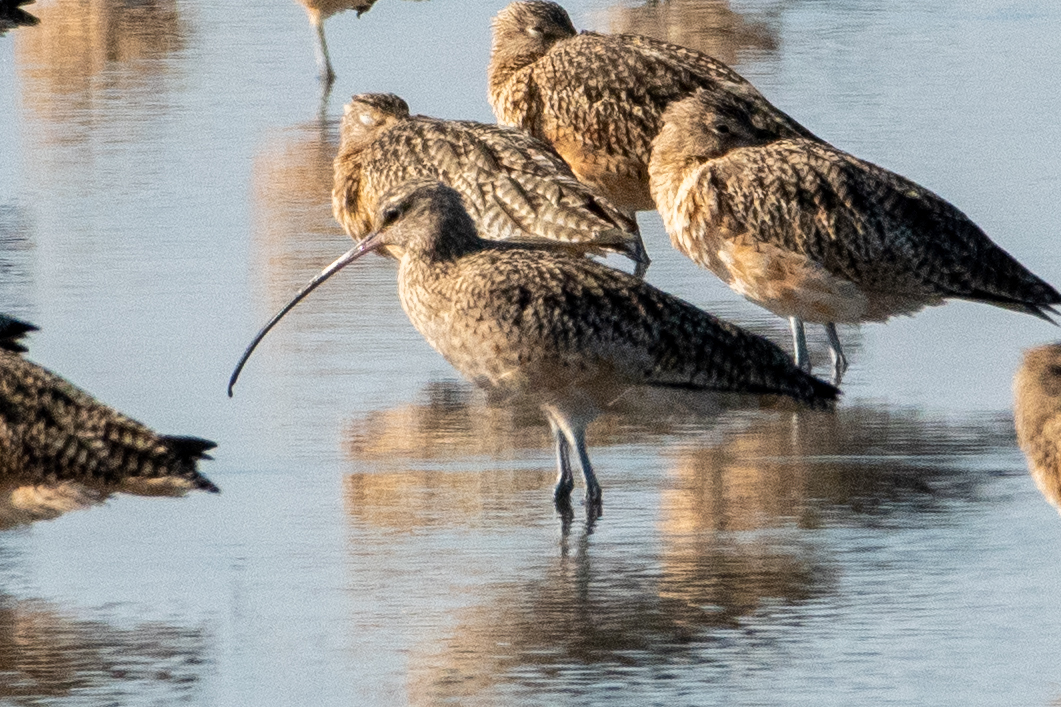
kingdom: Animalia
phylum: Chordata
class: Aves
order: Charadriiformes
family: Scolopacidae
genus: Numenius
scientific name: Numenius americanus
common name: Long-billed curlew
